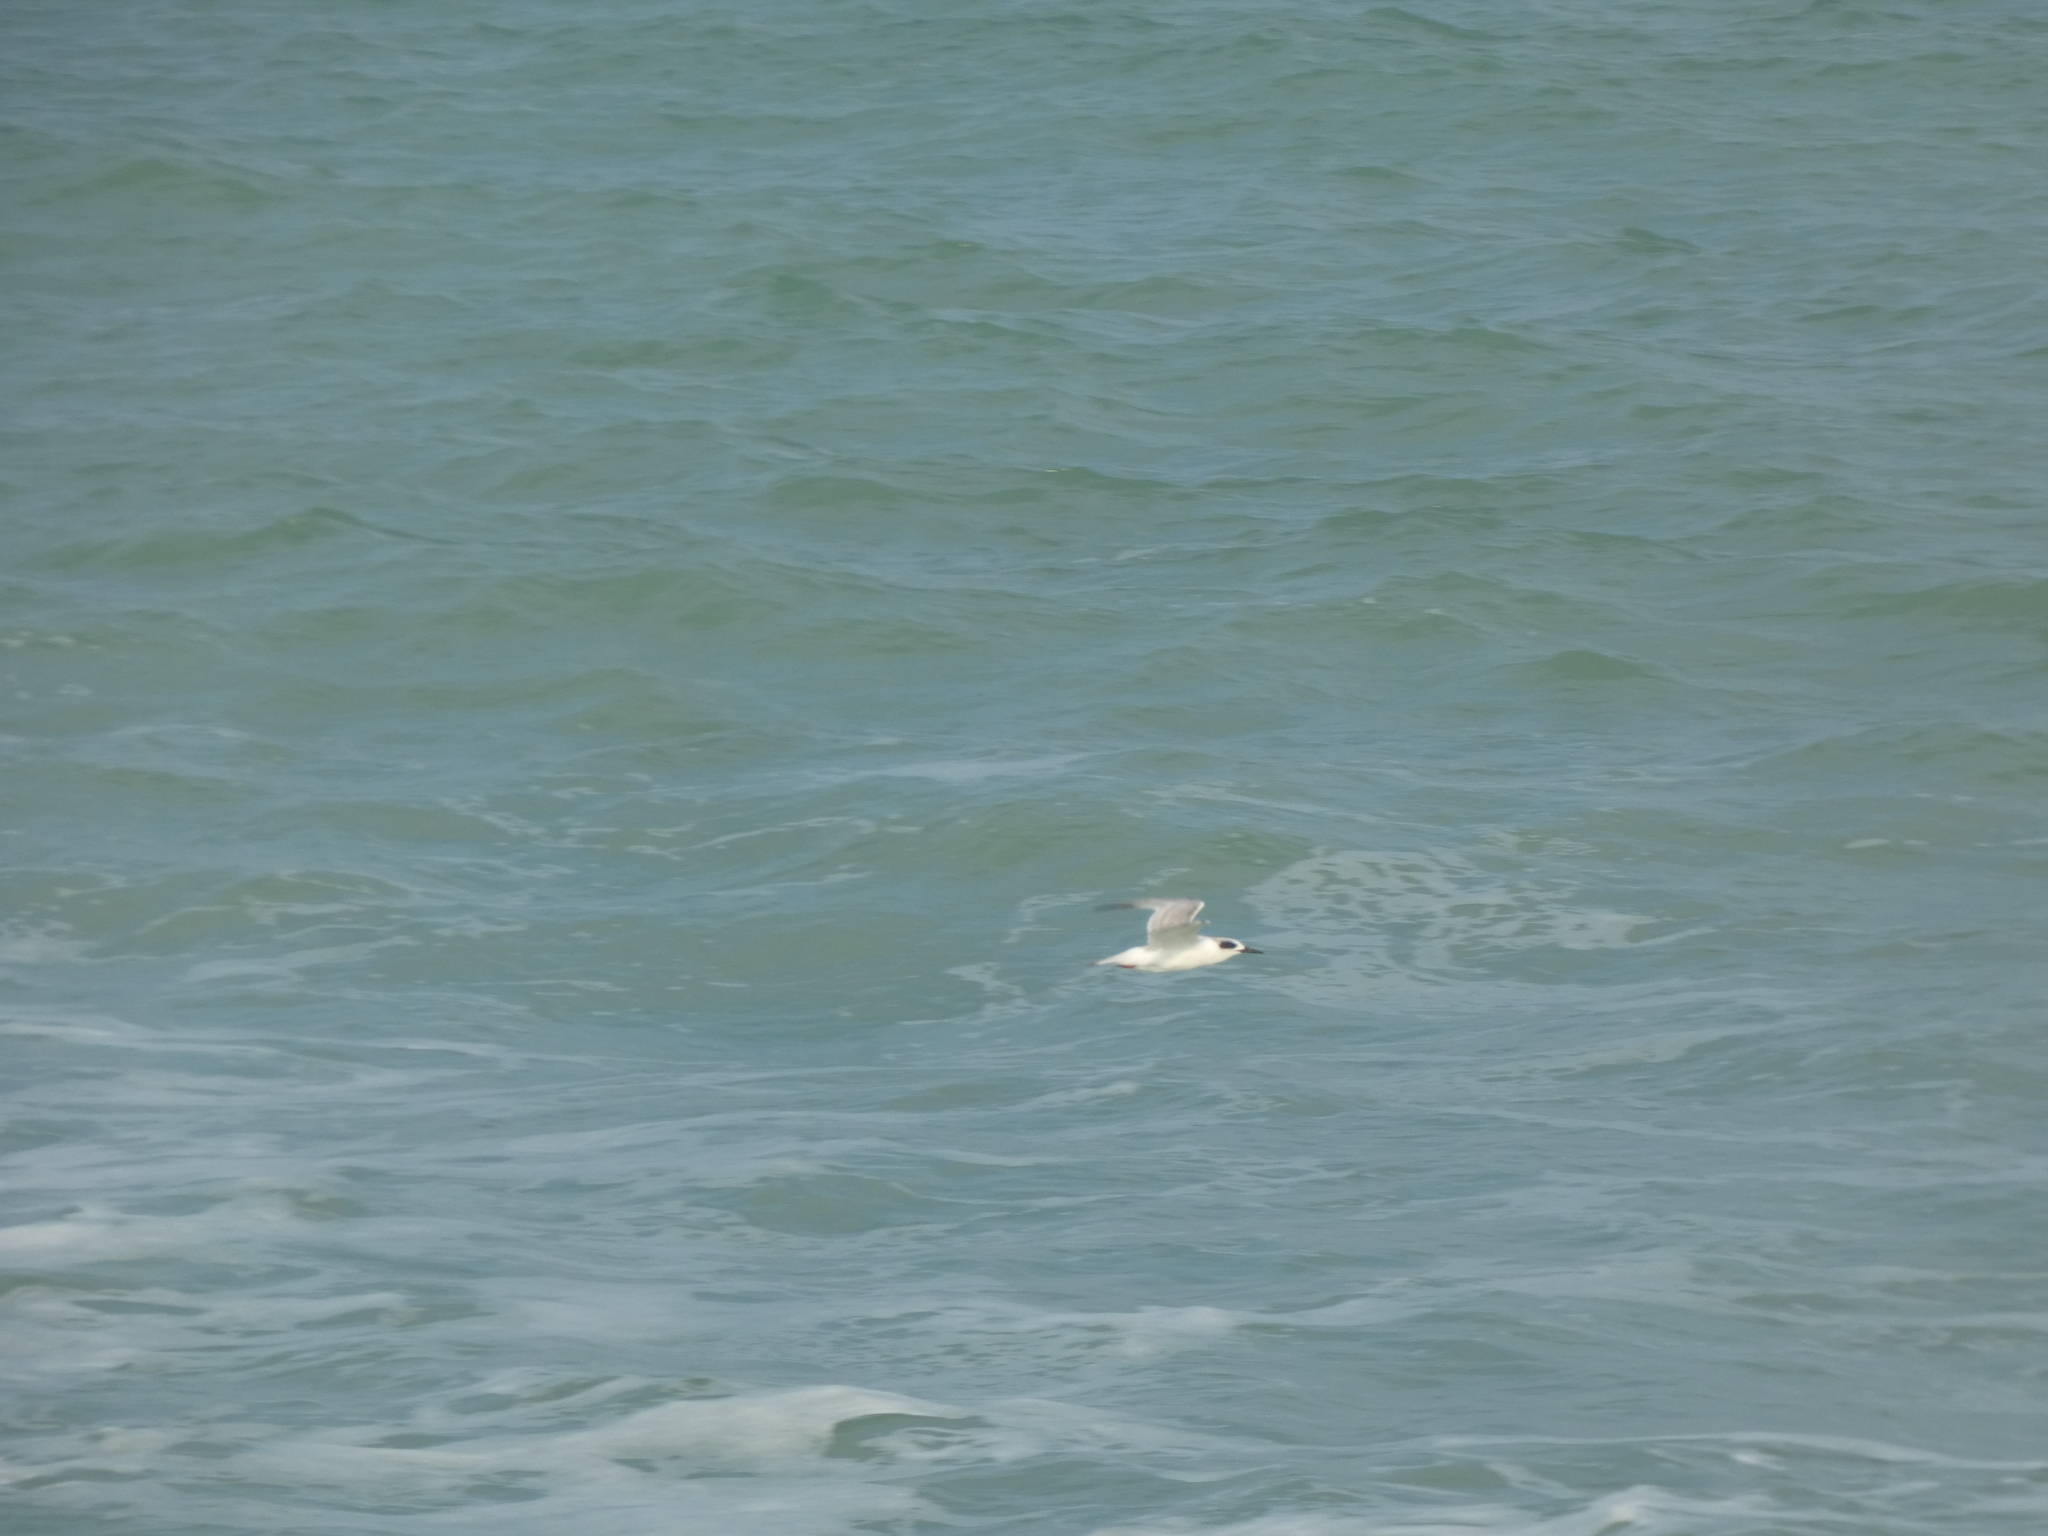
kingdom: Animalia
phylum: Chordata
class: Aves
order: Charadriiformes
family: Laridae
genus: Sterna
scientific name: Sterna forsteri
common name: Forster's tern
